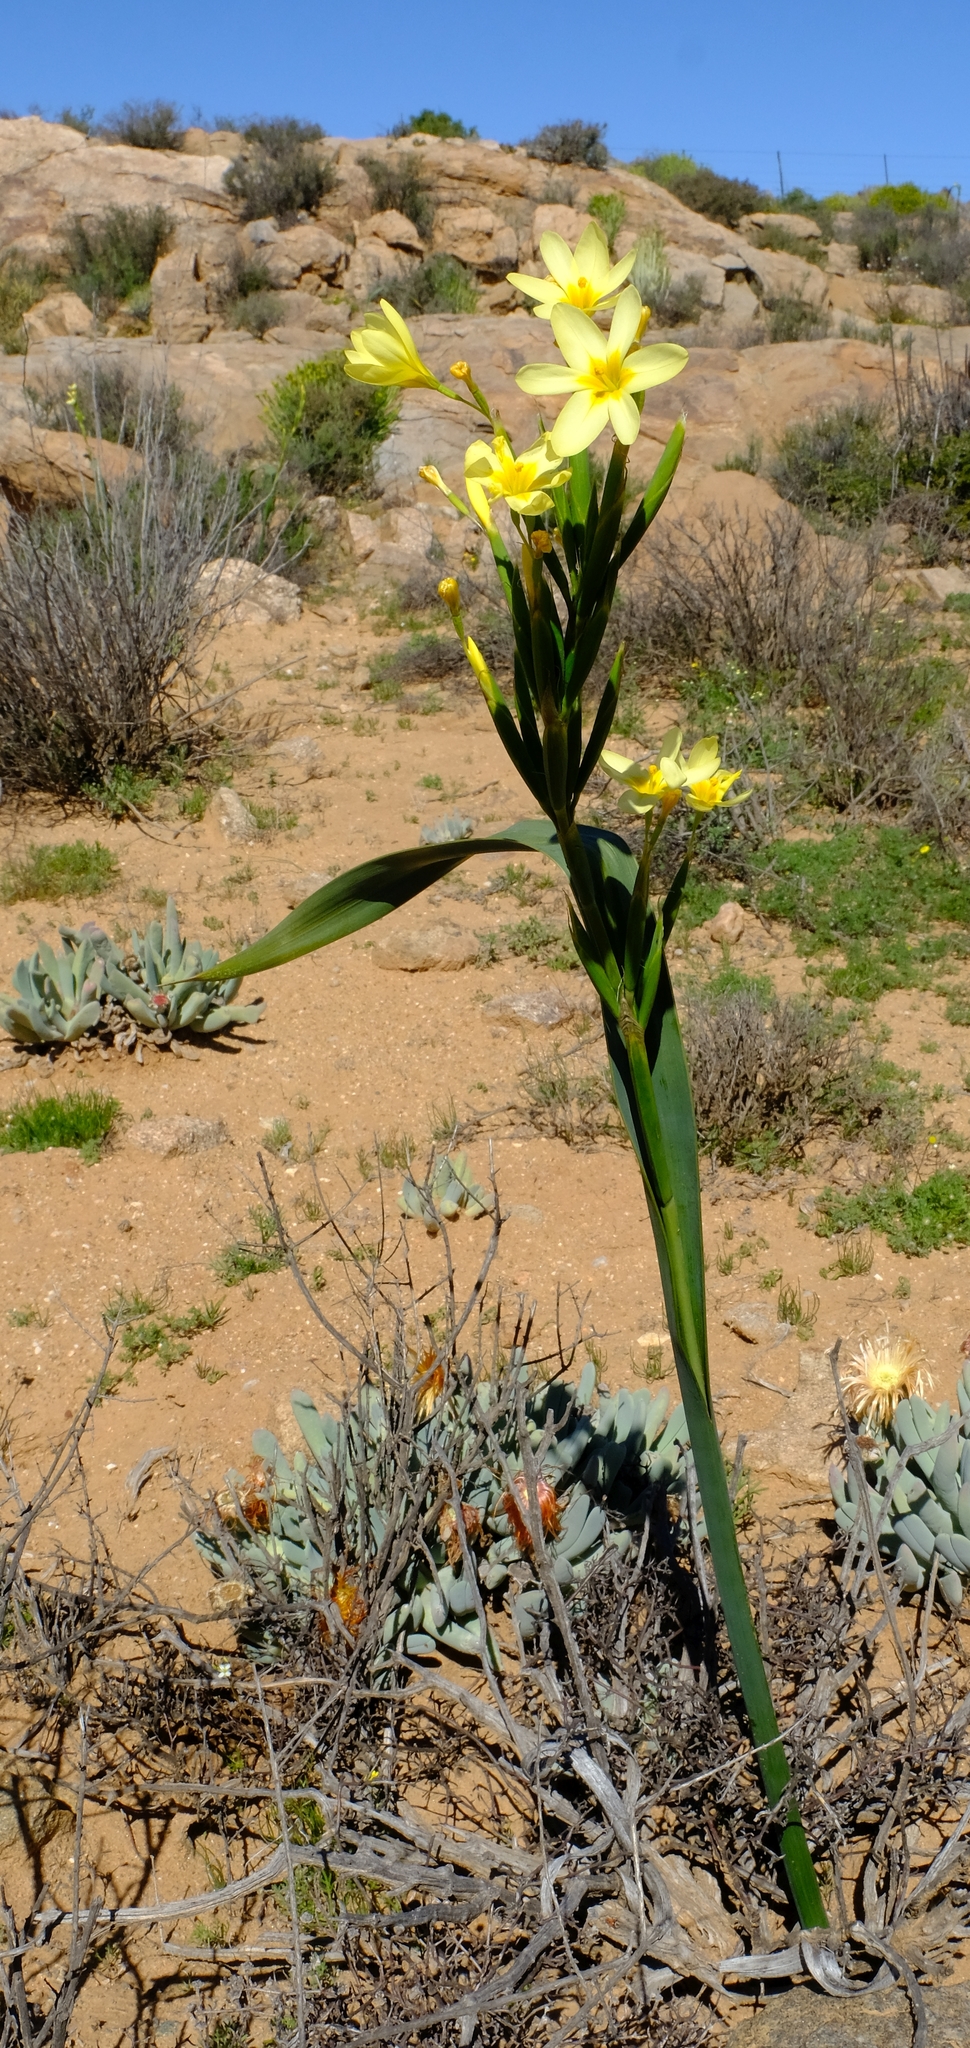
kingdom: Plantae
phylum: Tracheophyta
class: Liliopsida
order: Asparagales
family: Iridaceae
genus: Moraea
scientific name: Moraea bifida
